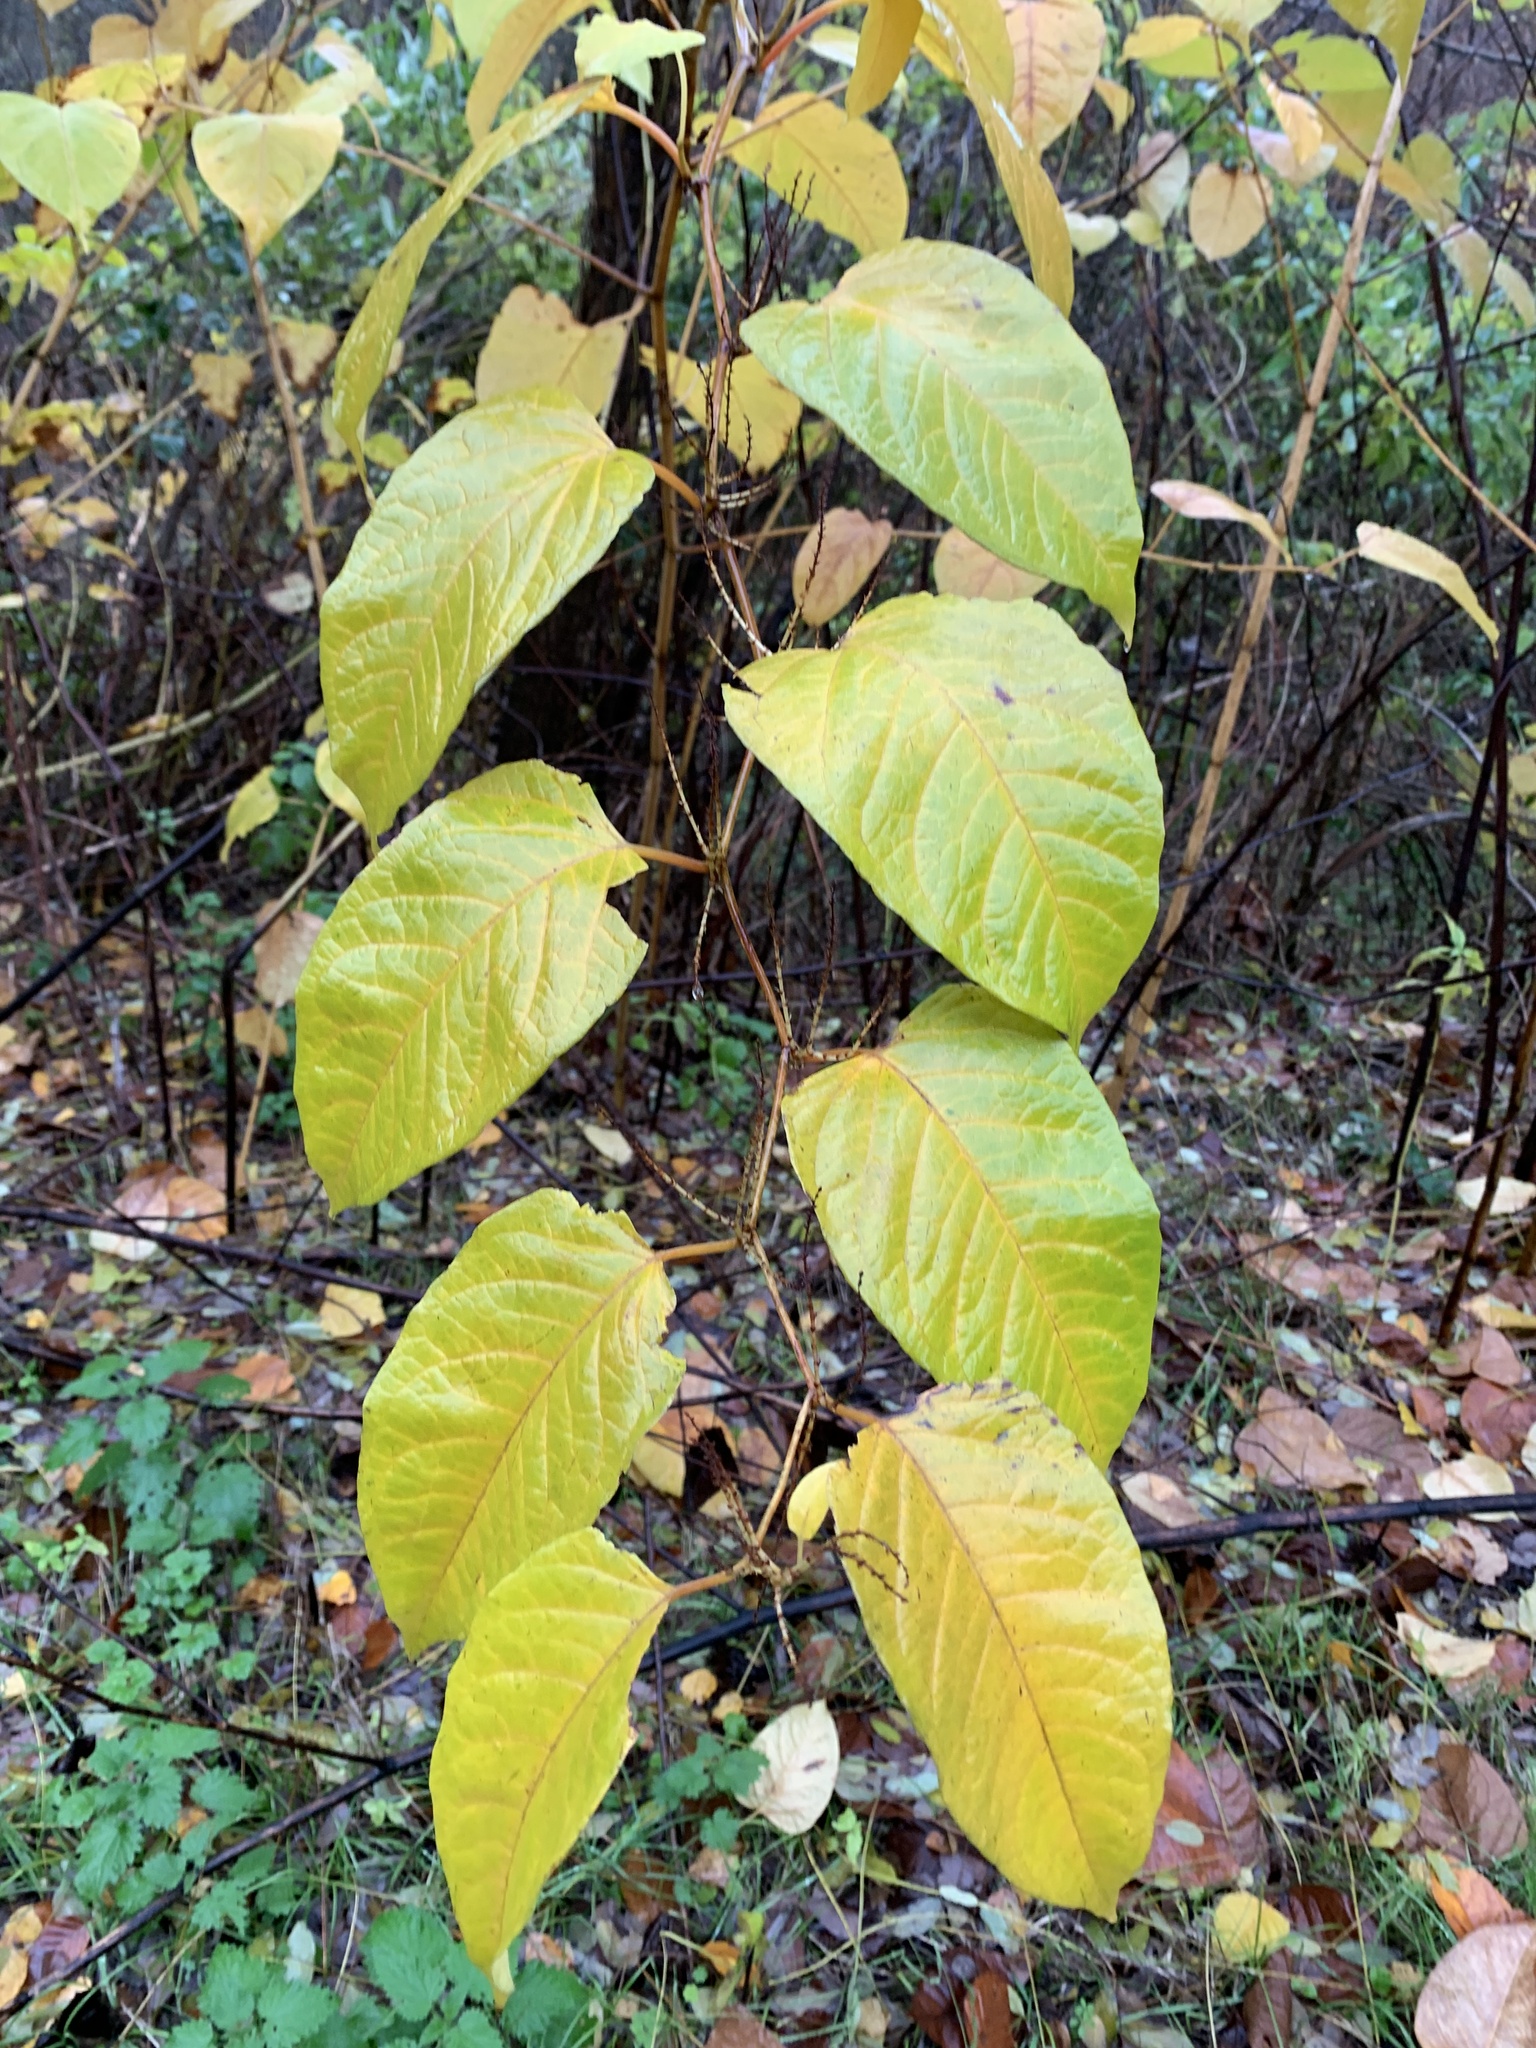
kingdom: Plantae
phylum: Tracheophyta
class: Magnoliopsida
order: Caryophyllales
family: Polygonaceae
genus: Reynoutria
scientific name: Reynoutria japonica
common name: Japanese knotweed
